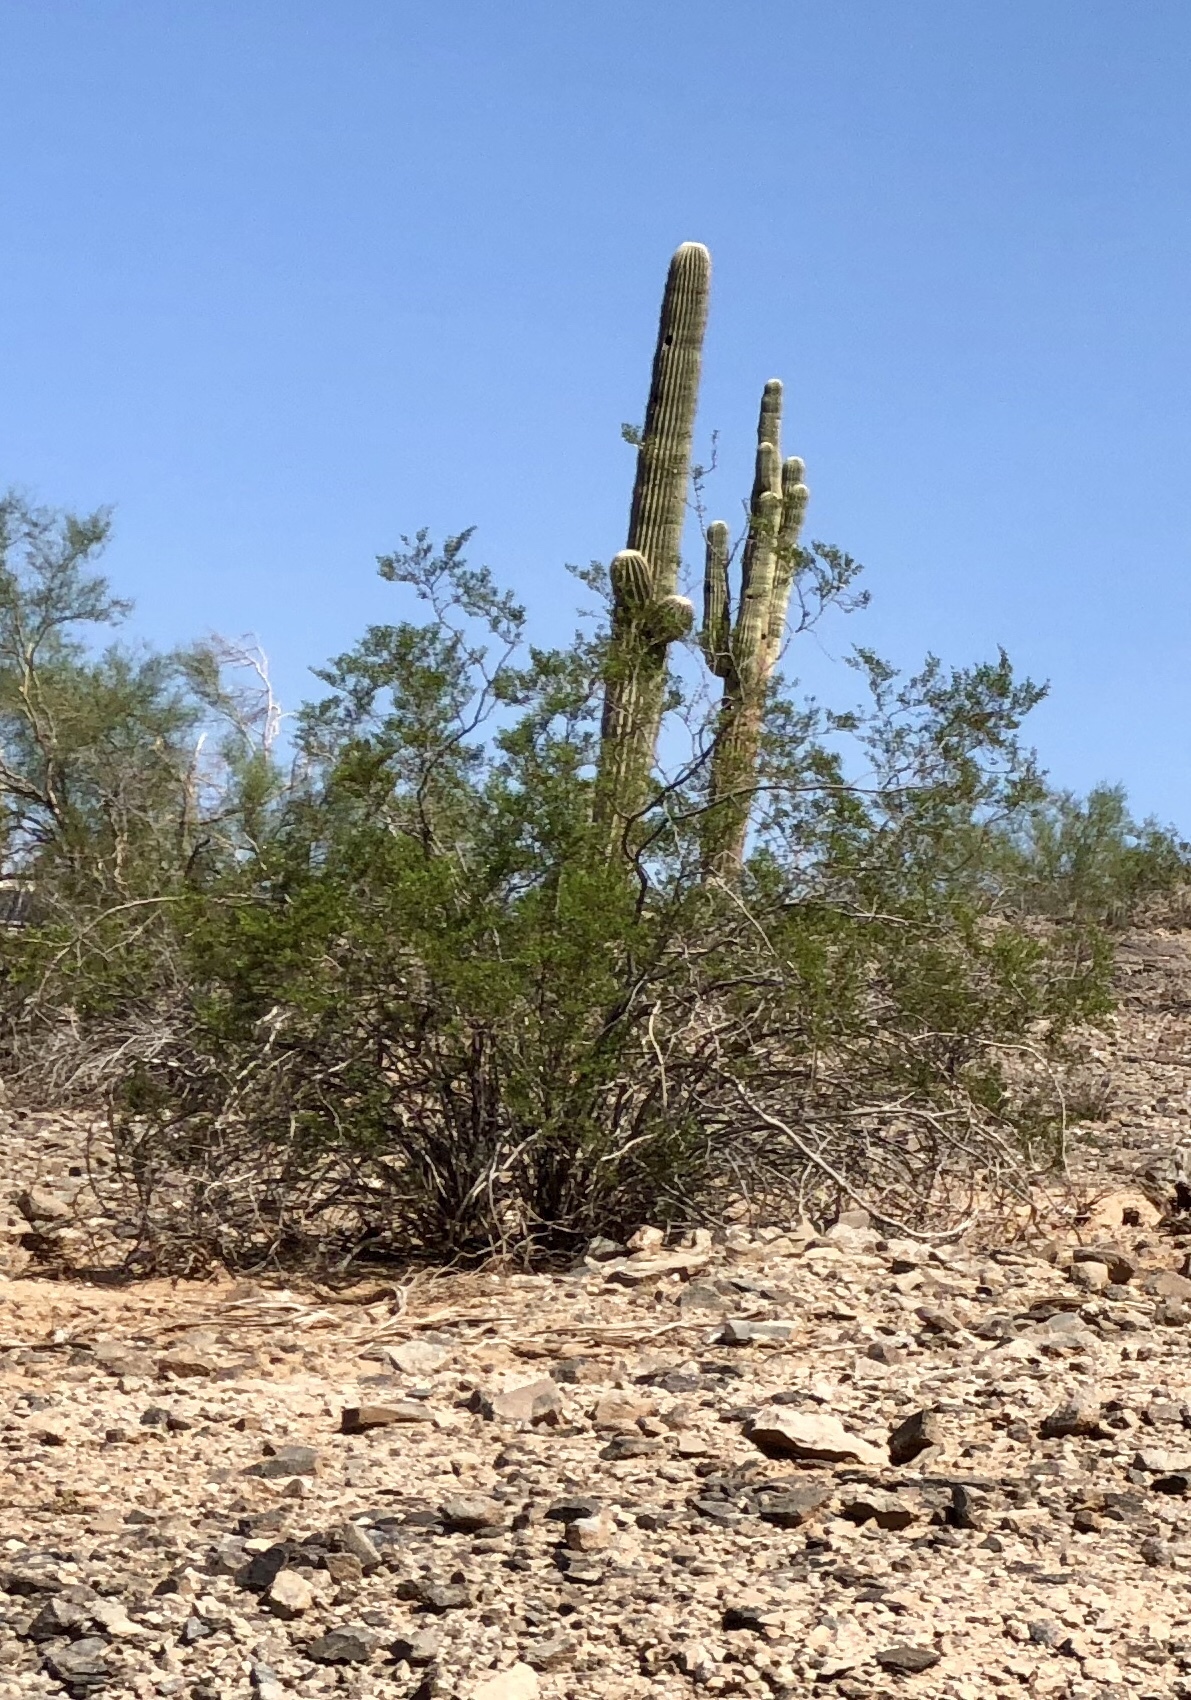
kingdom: Plantae
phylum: Tracheophyta
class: Magnoliopsida
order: Zygophyllales
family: Zygophyllaceae
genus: Larrea
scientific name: Larrea tridentata
